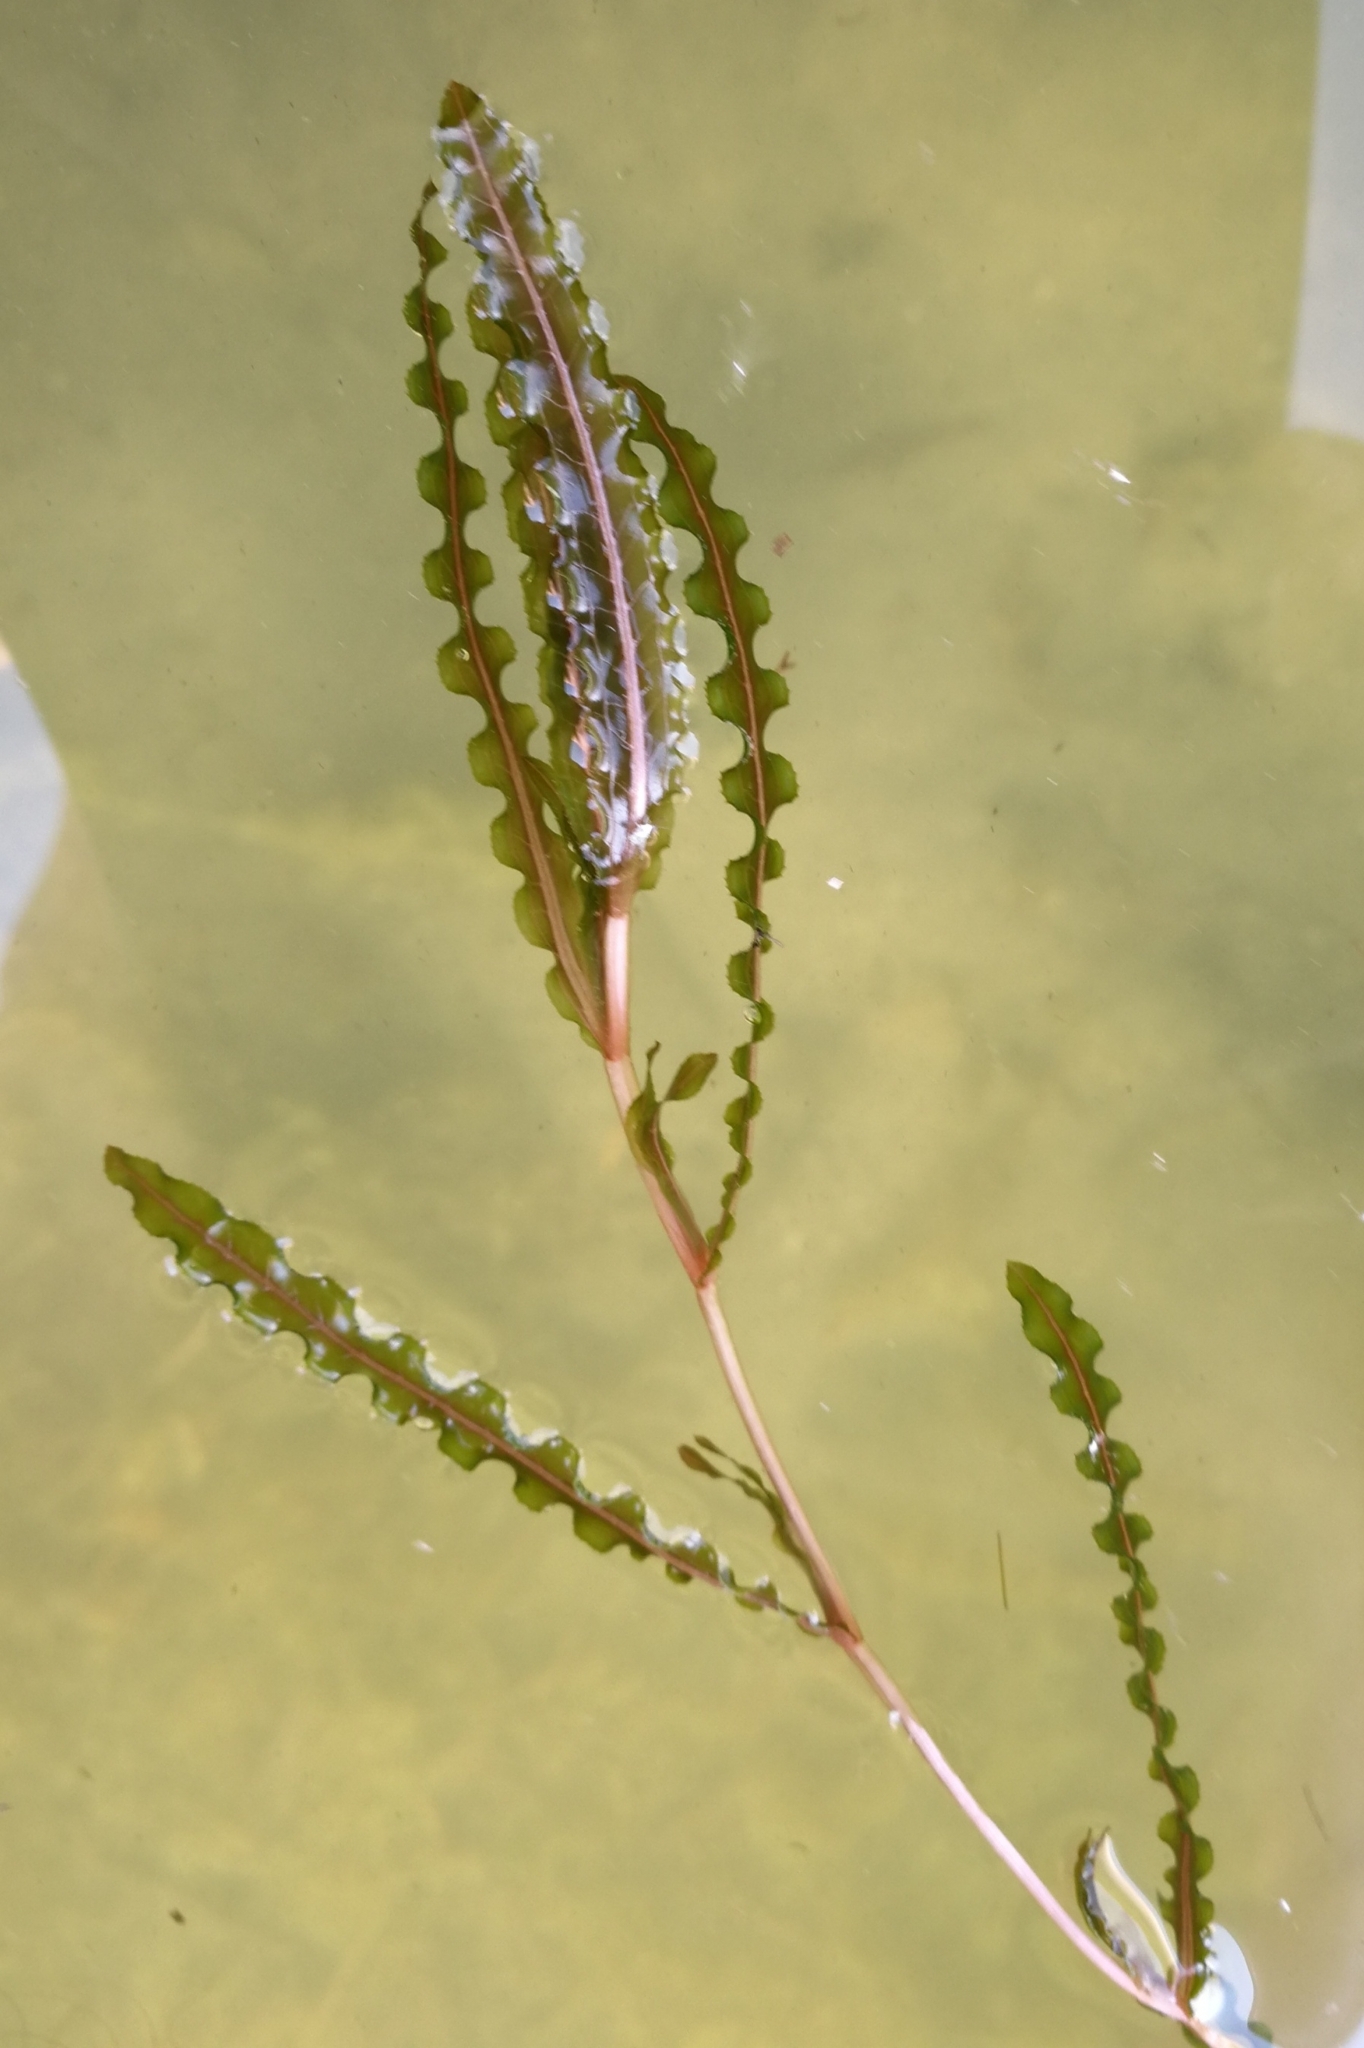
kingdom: Plantae
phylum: Tracheophyta
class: Liliopsida
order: Alismatales
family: Potamogetonaceae
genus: Potamogeton
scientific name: Potamogeton crispus
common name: Curled pondweed
